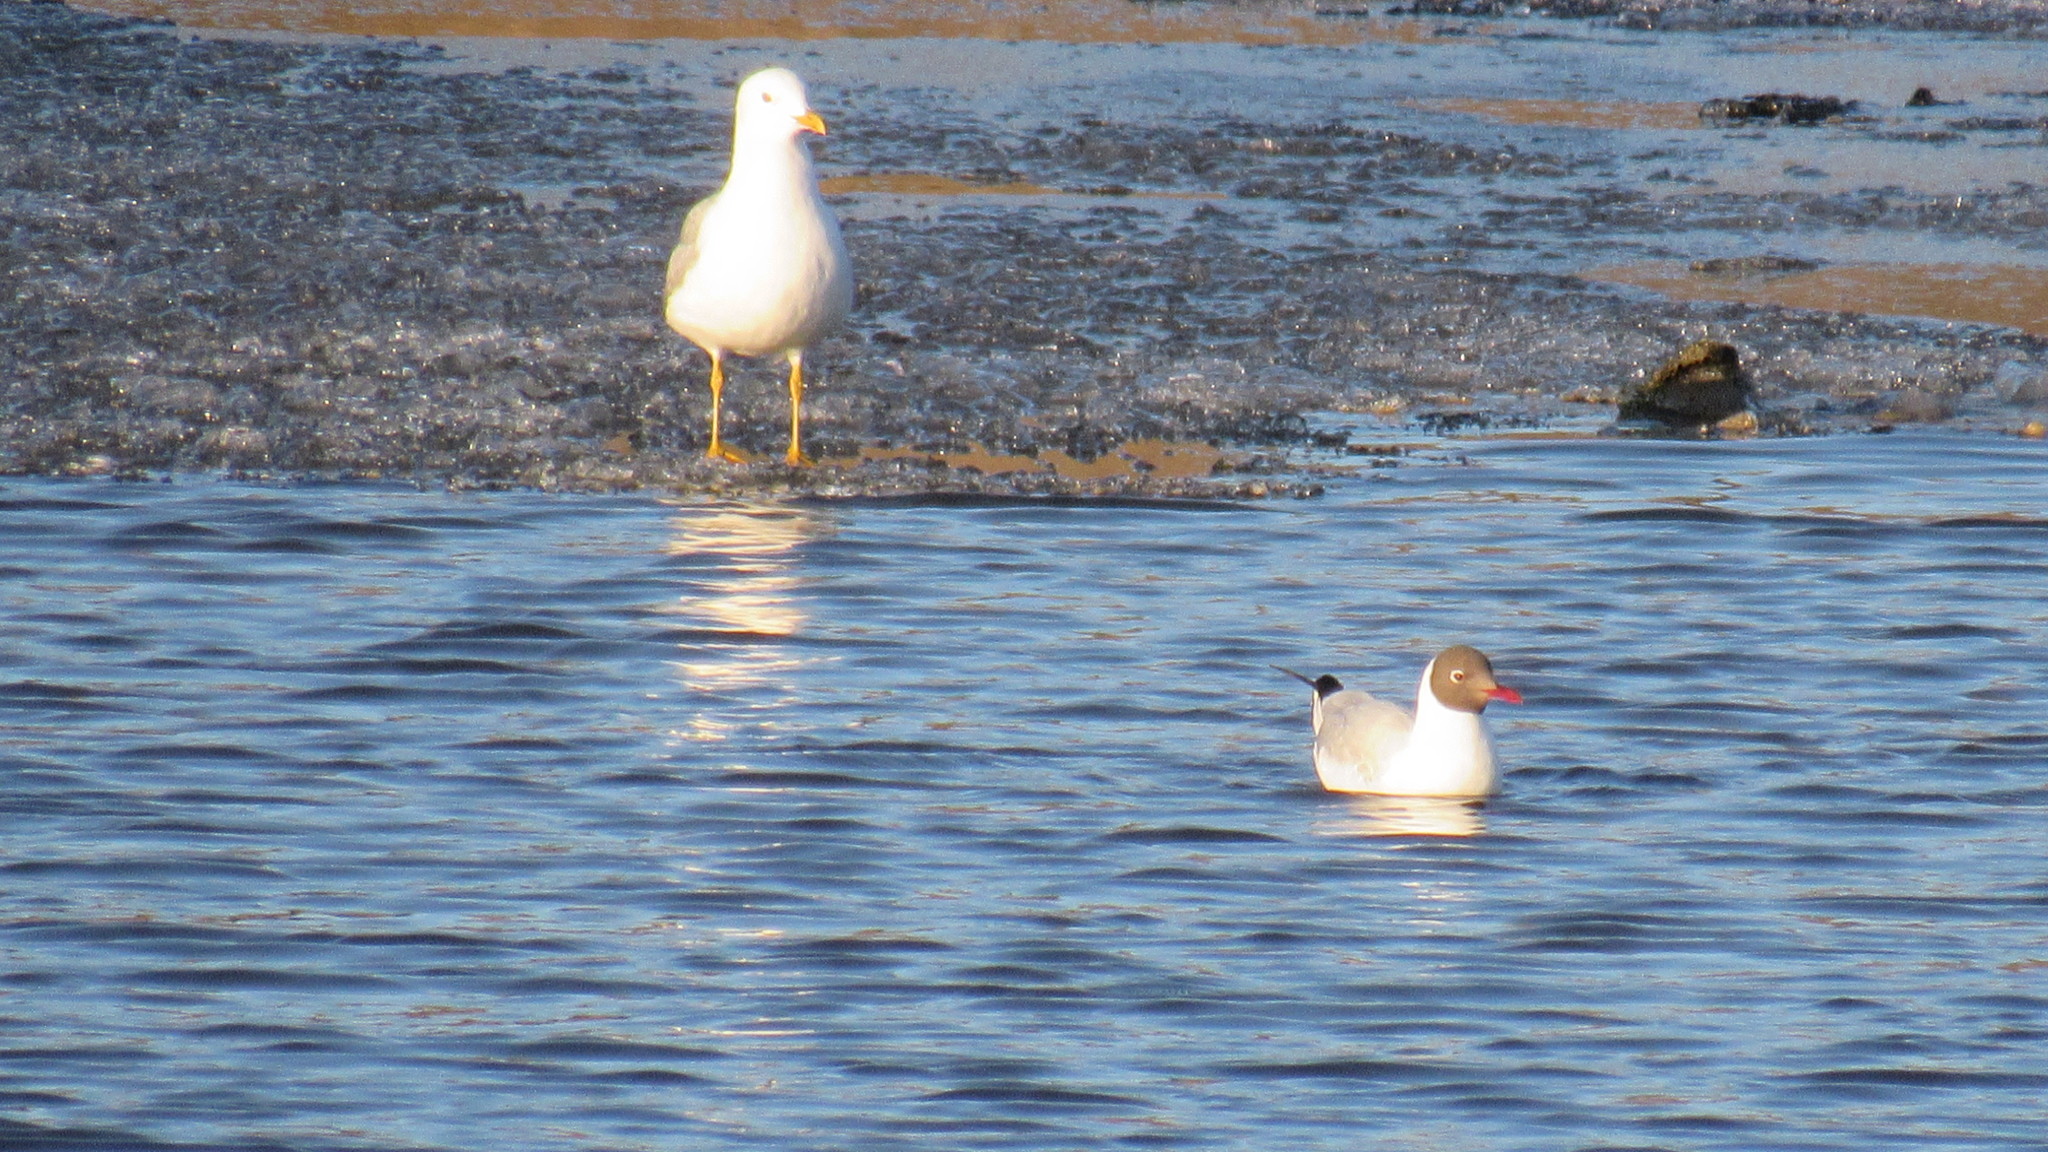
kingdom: Animalia
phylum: Chordata
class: Aves
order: Charadriiformes
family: Laridae
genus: Chroicocephalus
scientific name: Chroicocephalus ridibundus
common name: Black-headed gull
